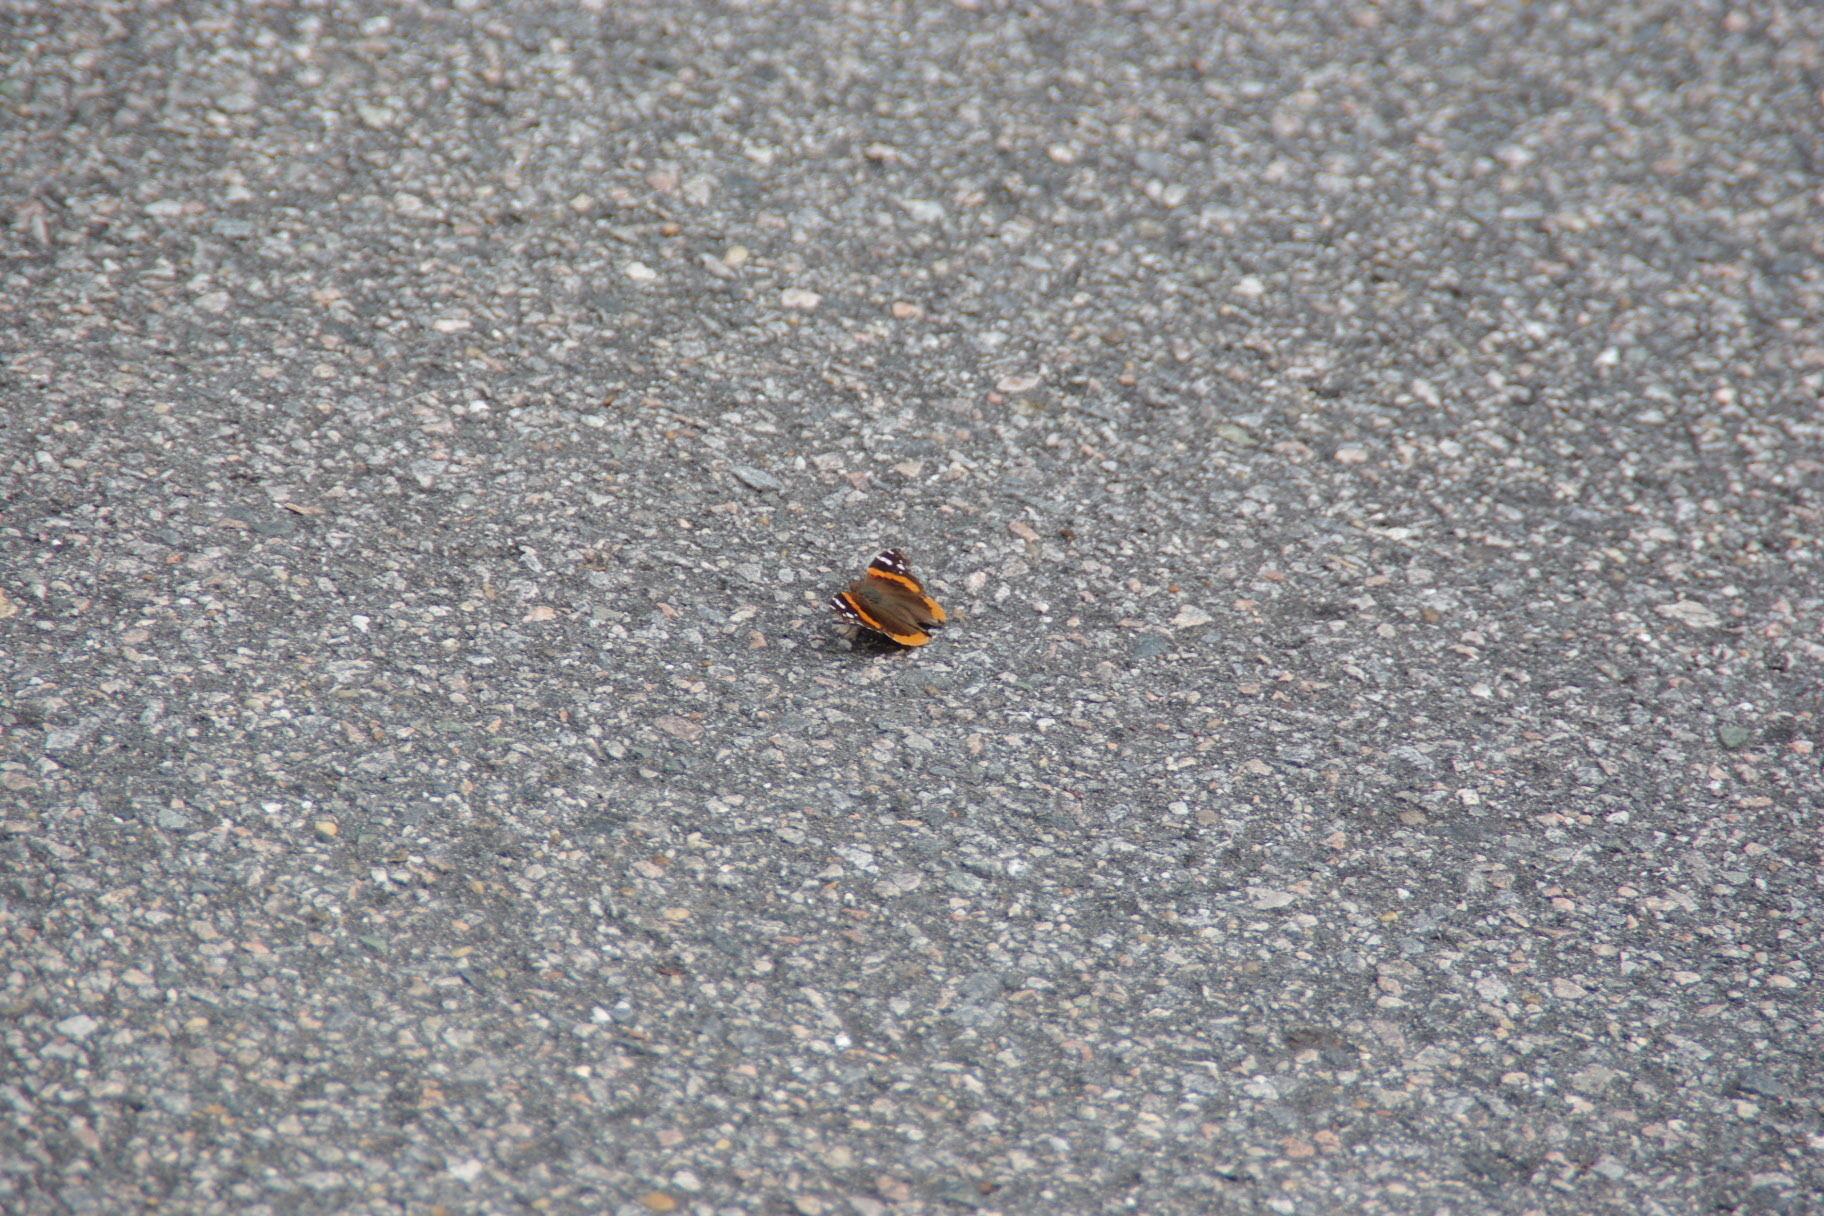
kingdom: Animalia
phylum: Arthropoda
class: Insecta
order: Lepidoptera
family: Nymphalidae
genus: Vanessa
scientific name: Vanessa atalanta
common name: Red admiral
